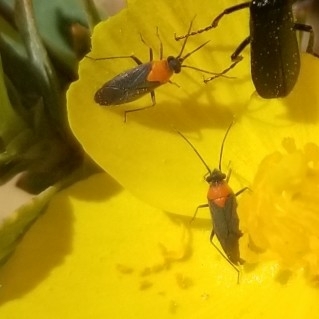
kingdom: Animalia
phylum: Arthropoda
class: Insecta
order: Hemiptera
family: Miridae
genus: Aoplonema
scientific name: Aoplonema nigrum
